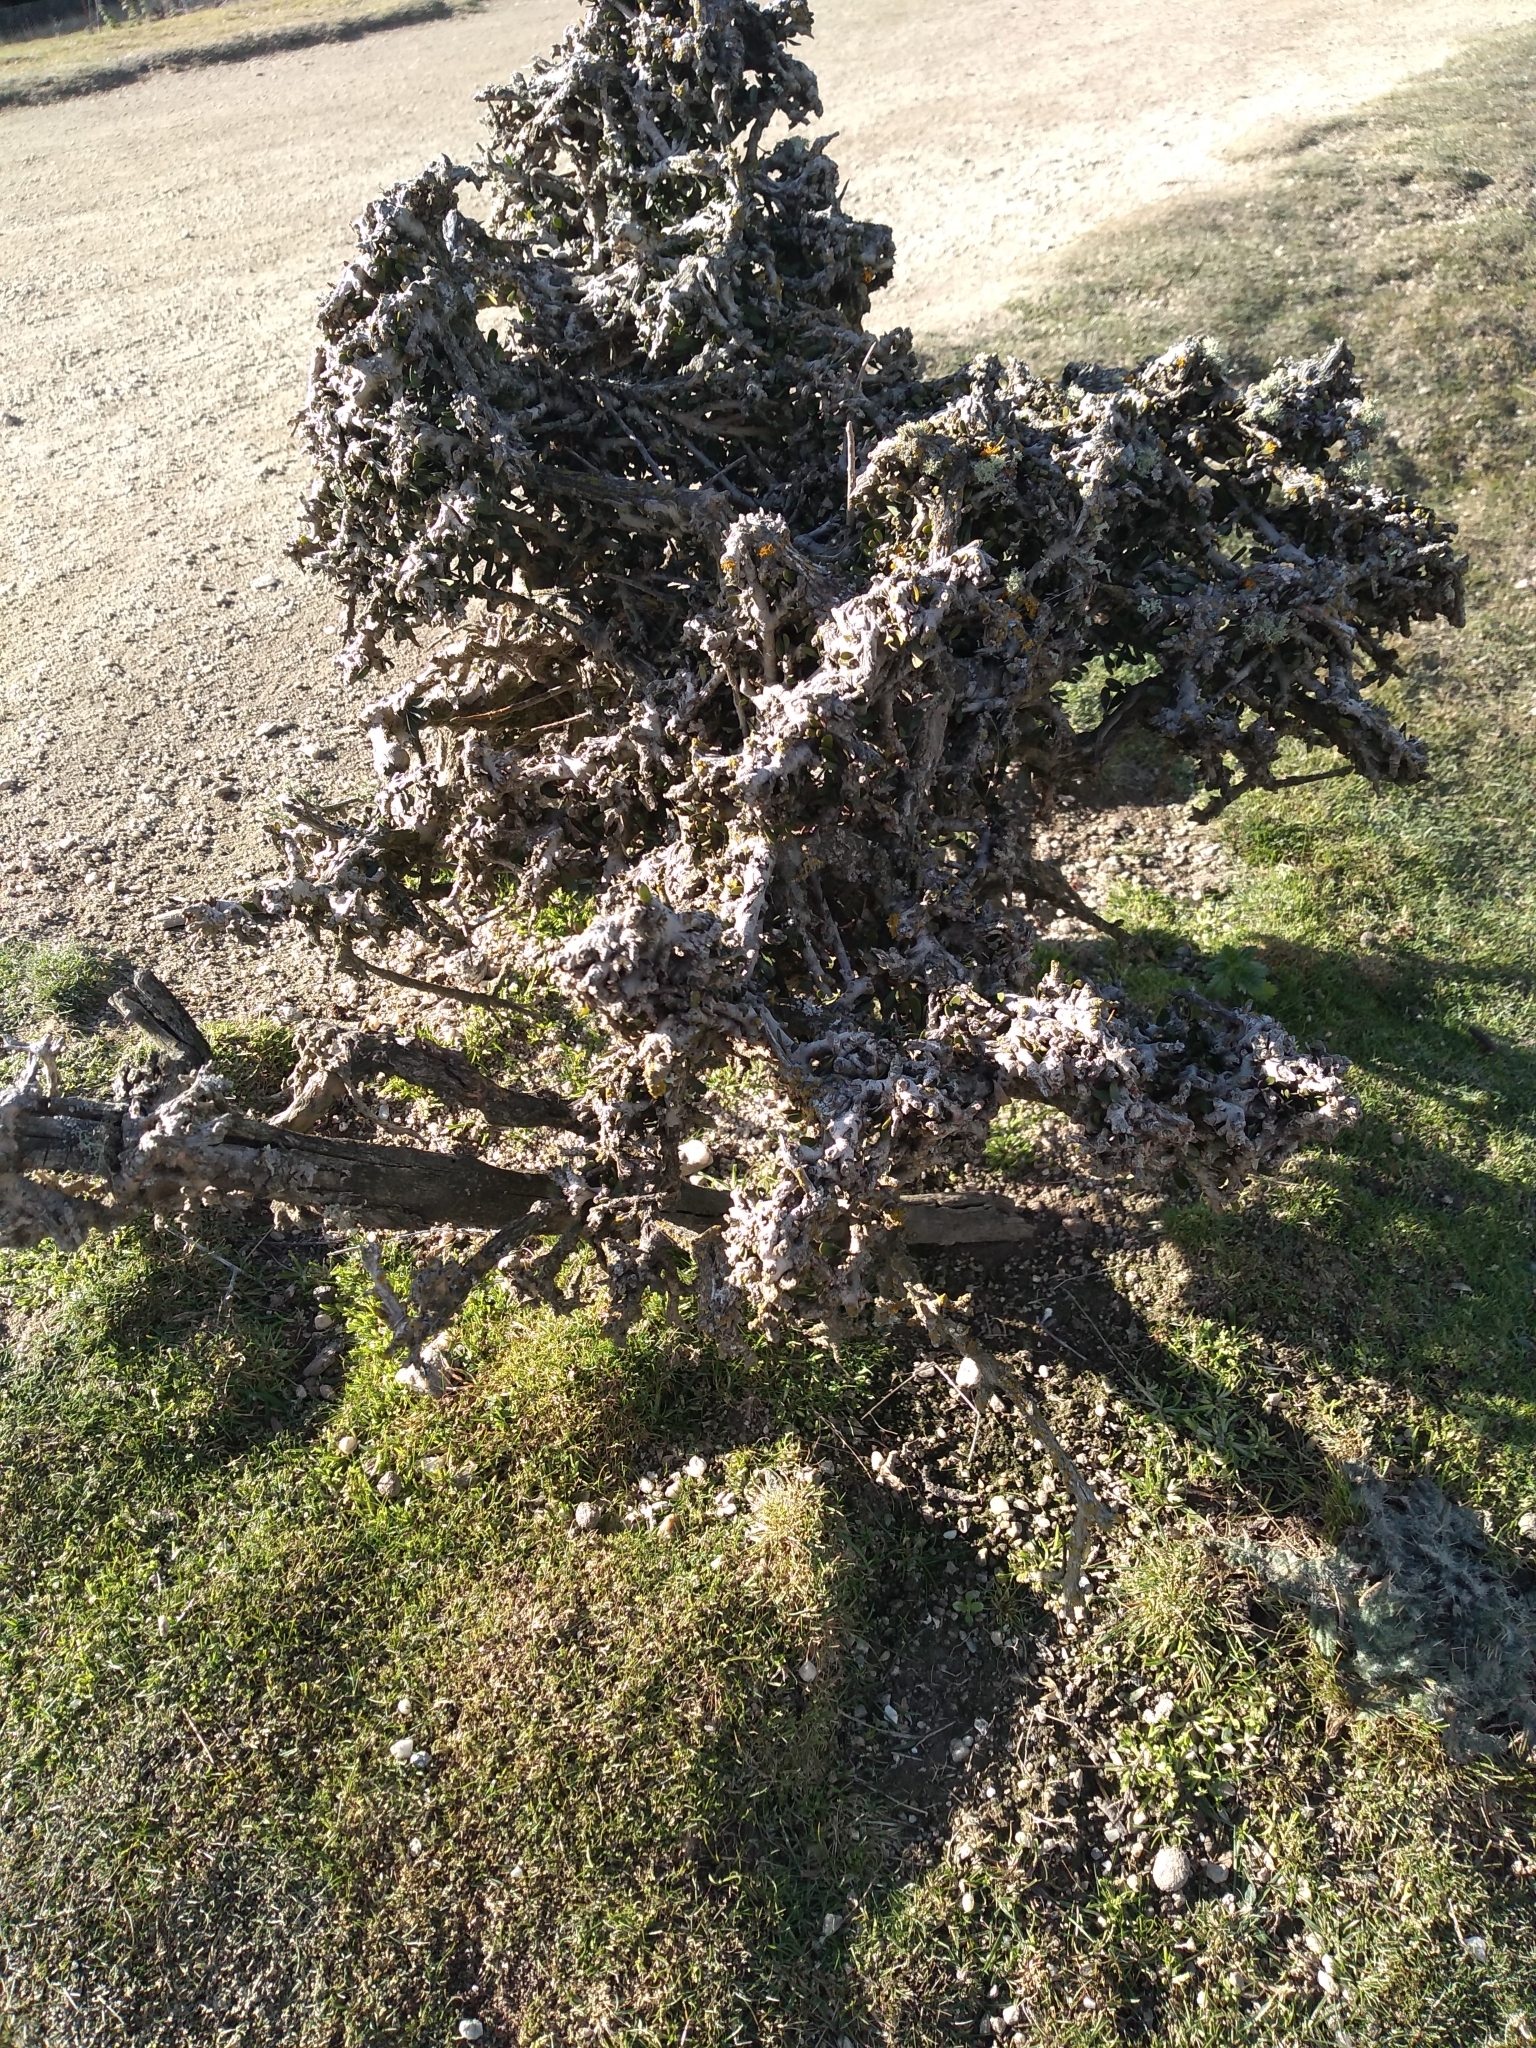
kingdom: Plantae
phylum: Tracheophyta
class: Magnoliopsida
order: Malpighiales
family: Violaceae
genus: Melicytus
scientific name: Melicytus alpinus
